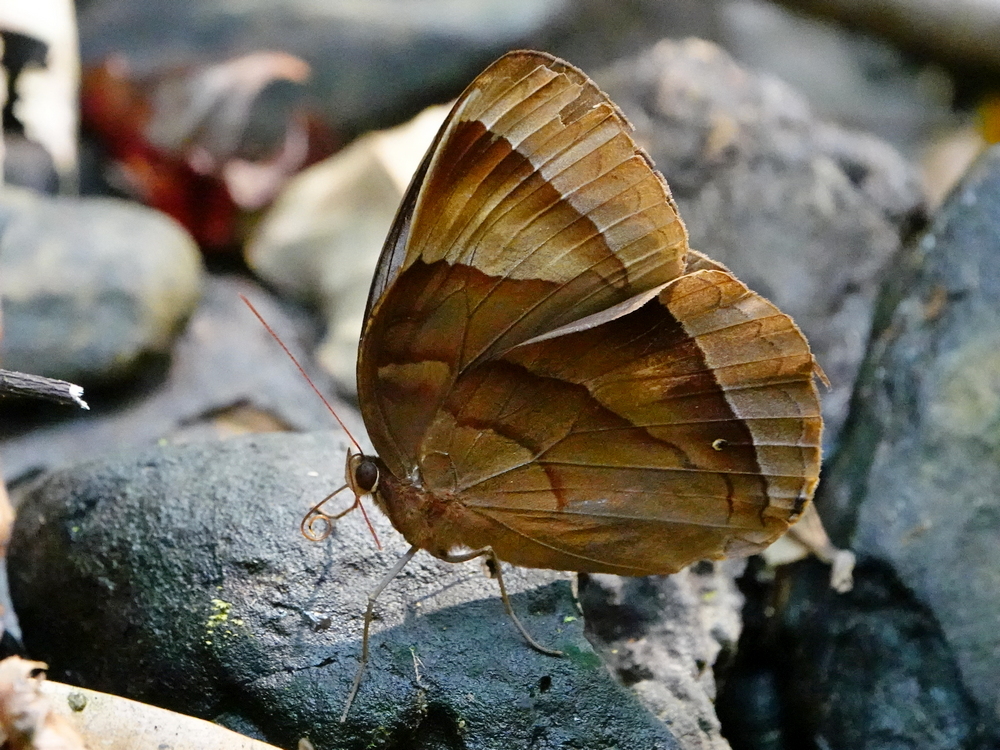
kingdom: Animalia
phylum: Arthropoda
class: Insecta
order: Lepidoptera
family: Nymphalidae
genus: Thaumantis
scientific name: Thaumantis diores
